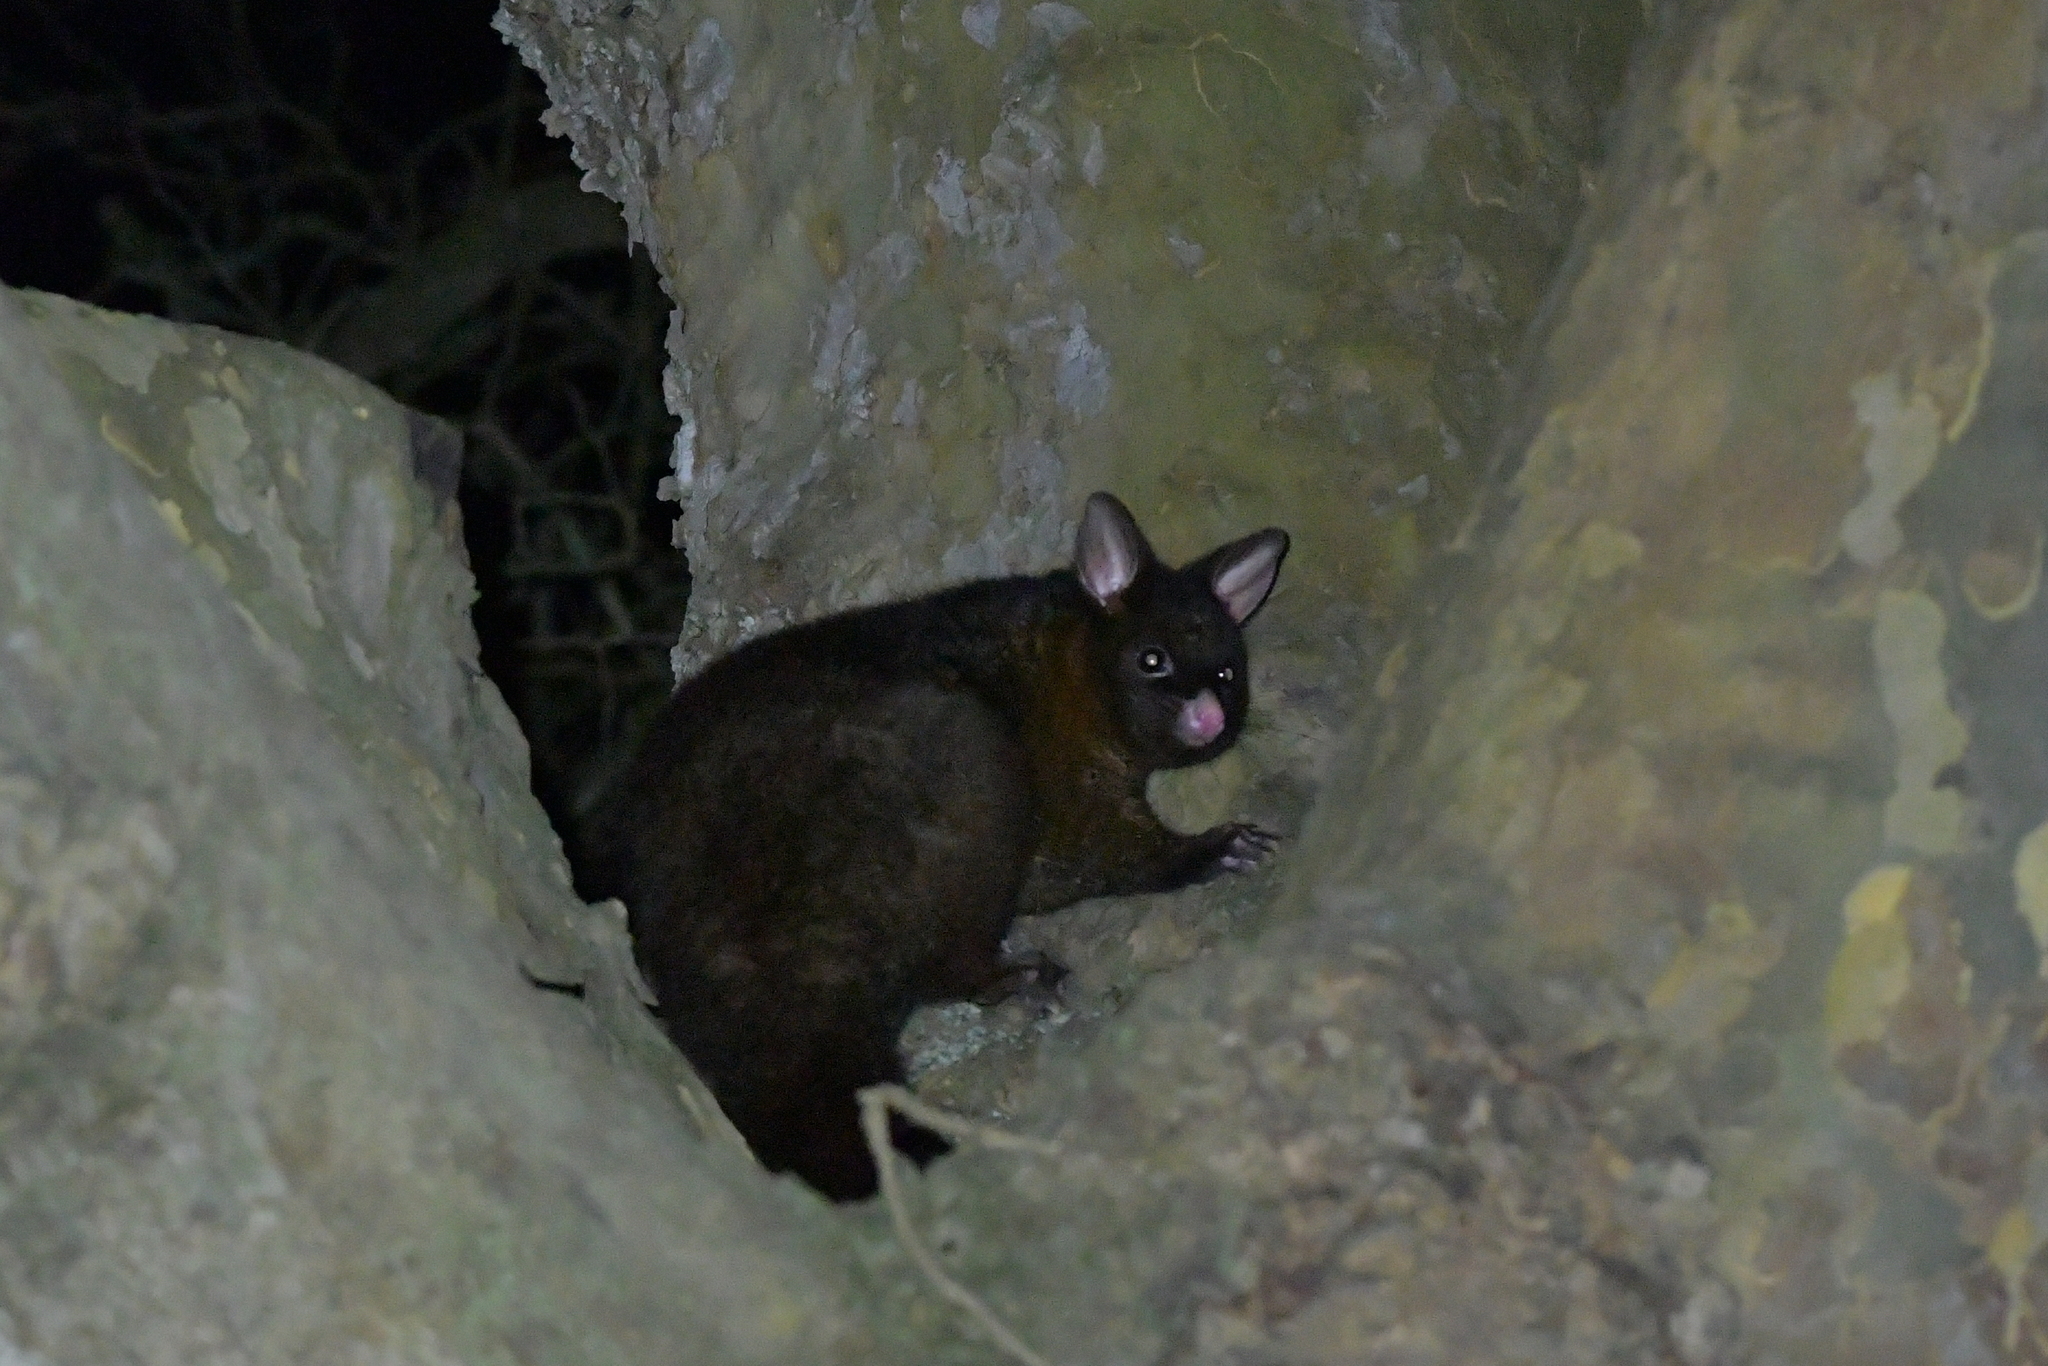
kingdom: Animalia
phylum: Chordata
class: Mammalia
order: Diprotodontia
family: Phalangeridae
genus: Trichosurus
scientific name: Trichosurus vulpecula
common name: Common brushtail
